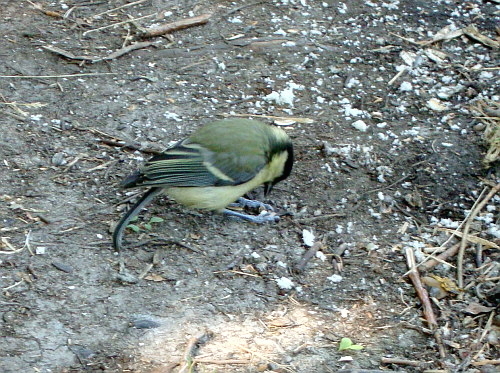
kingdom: Animalia
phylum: Chordata
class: Aves
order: Passeriformes
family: Paridae
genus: Parus
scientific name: Parus major
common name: Great tit
